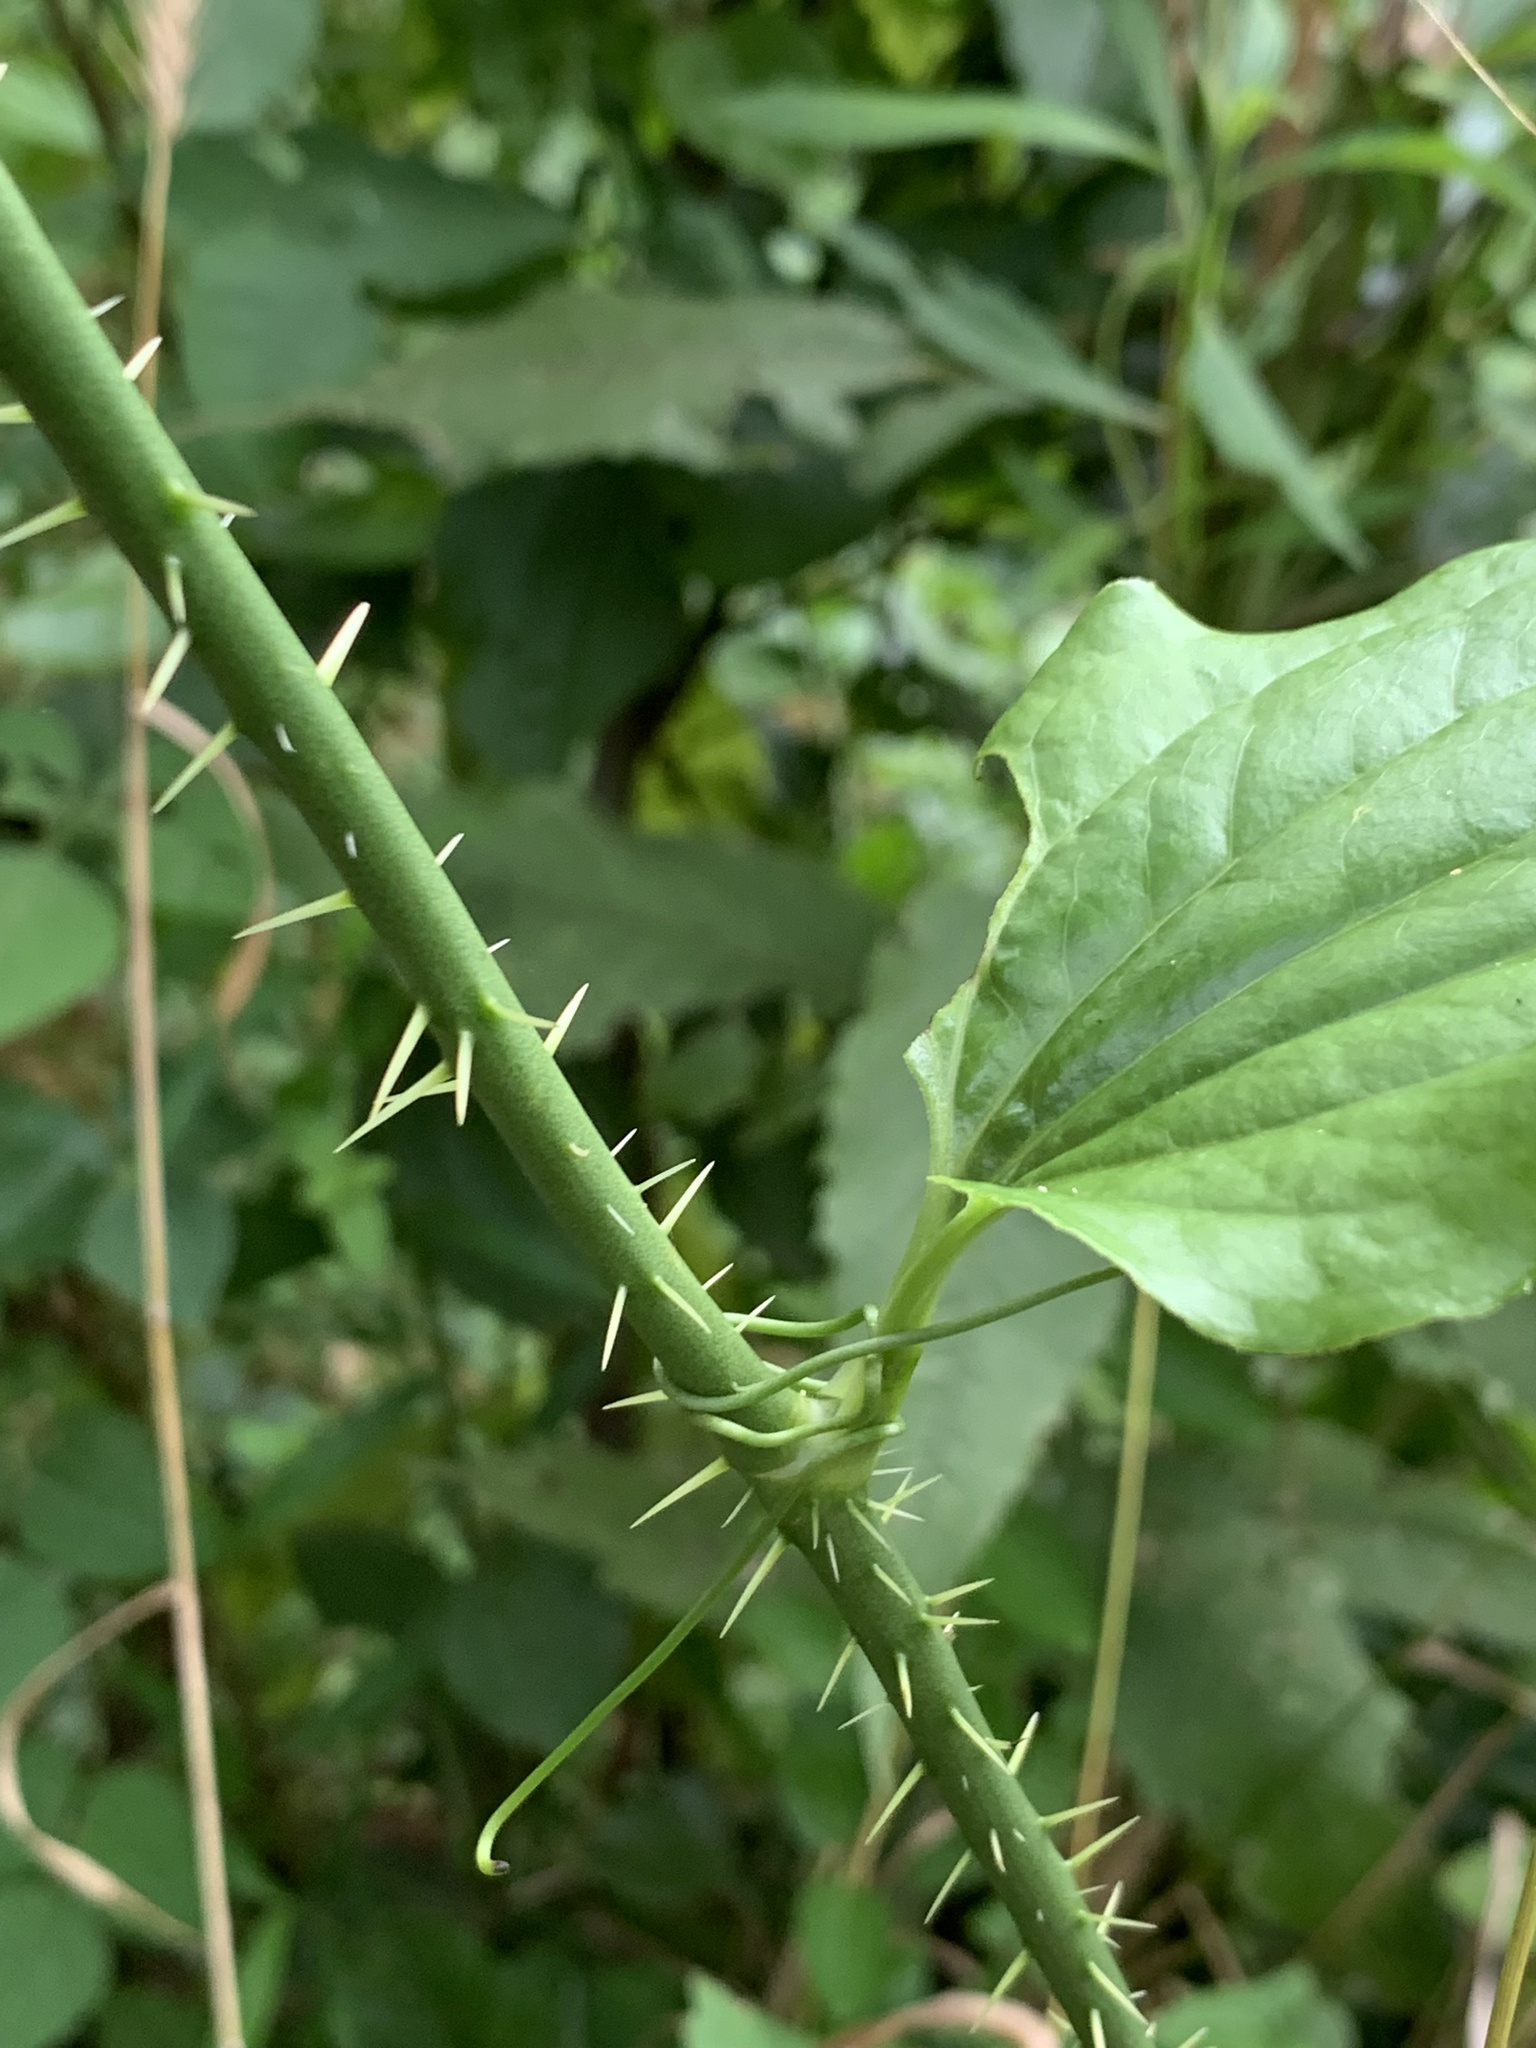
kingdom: Plantae
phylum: Tracheophyta
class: Liliopsida
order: Liliales
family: Smilacaceae
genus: Smilax
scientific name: Smilax tamnoides
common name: Hellfetter
